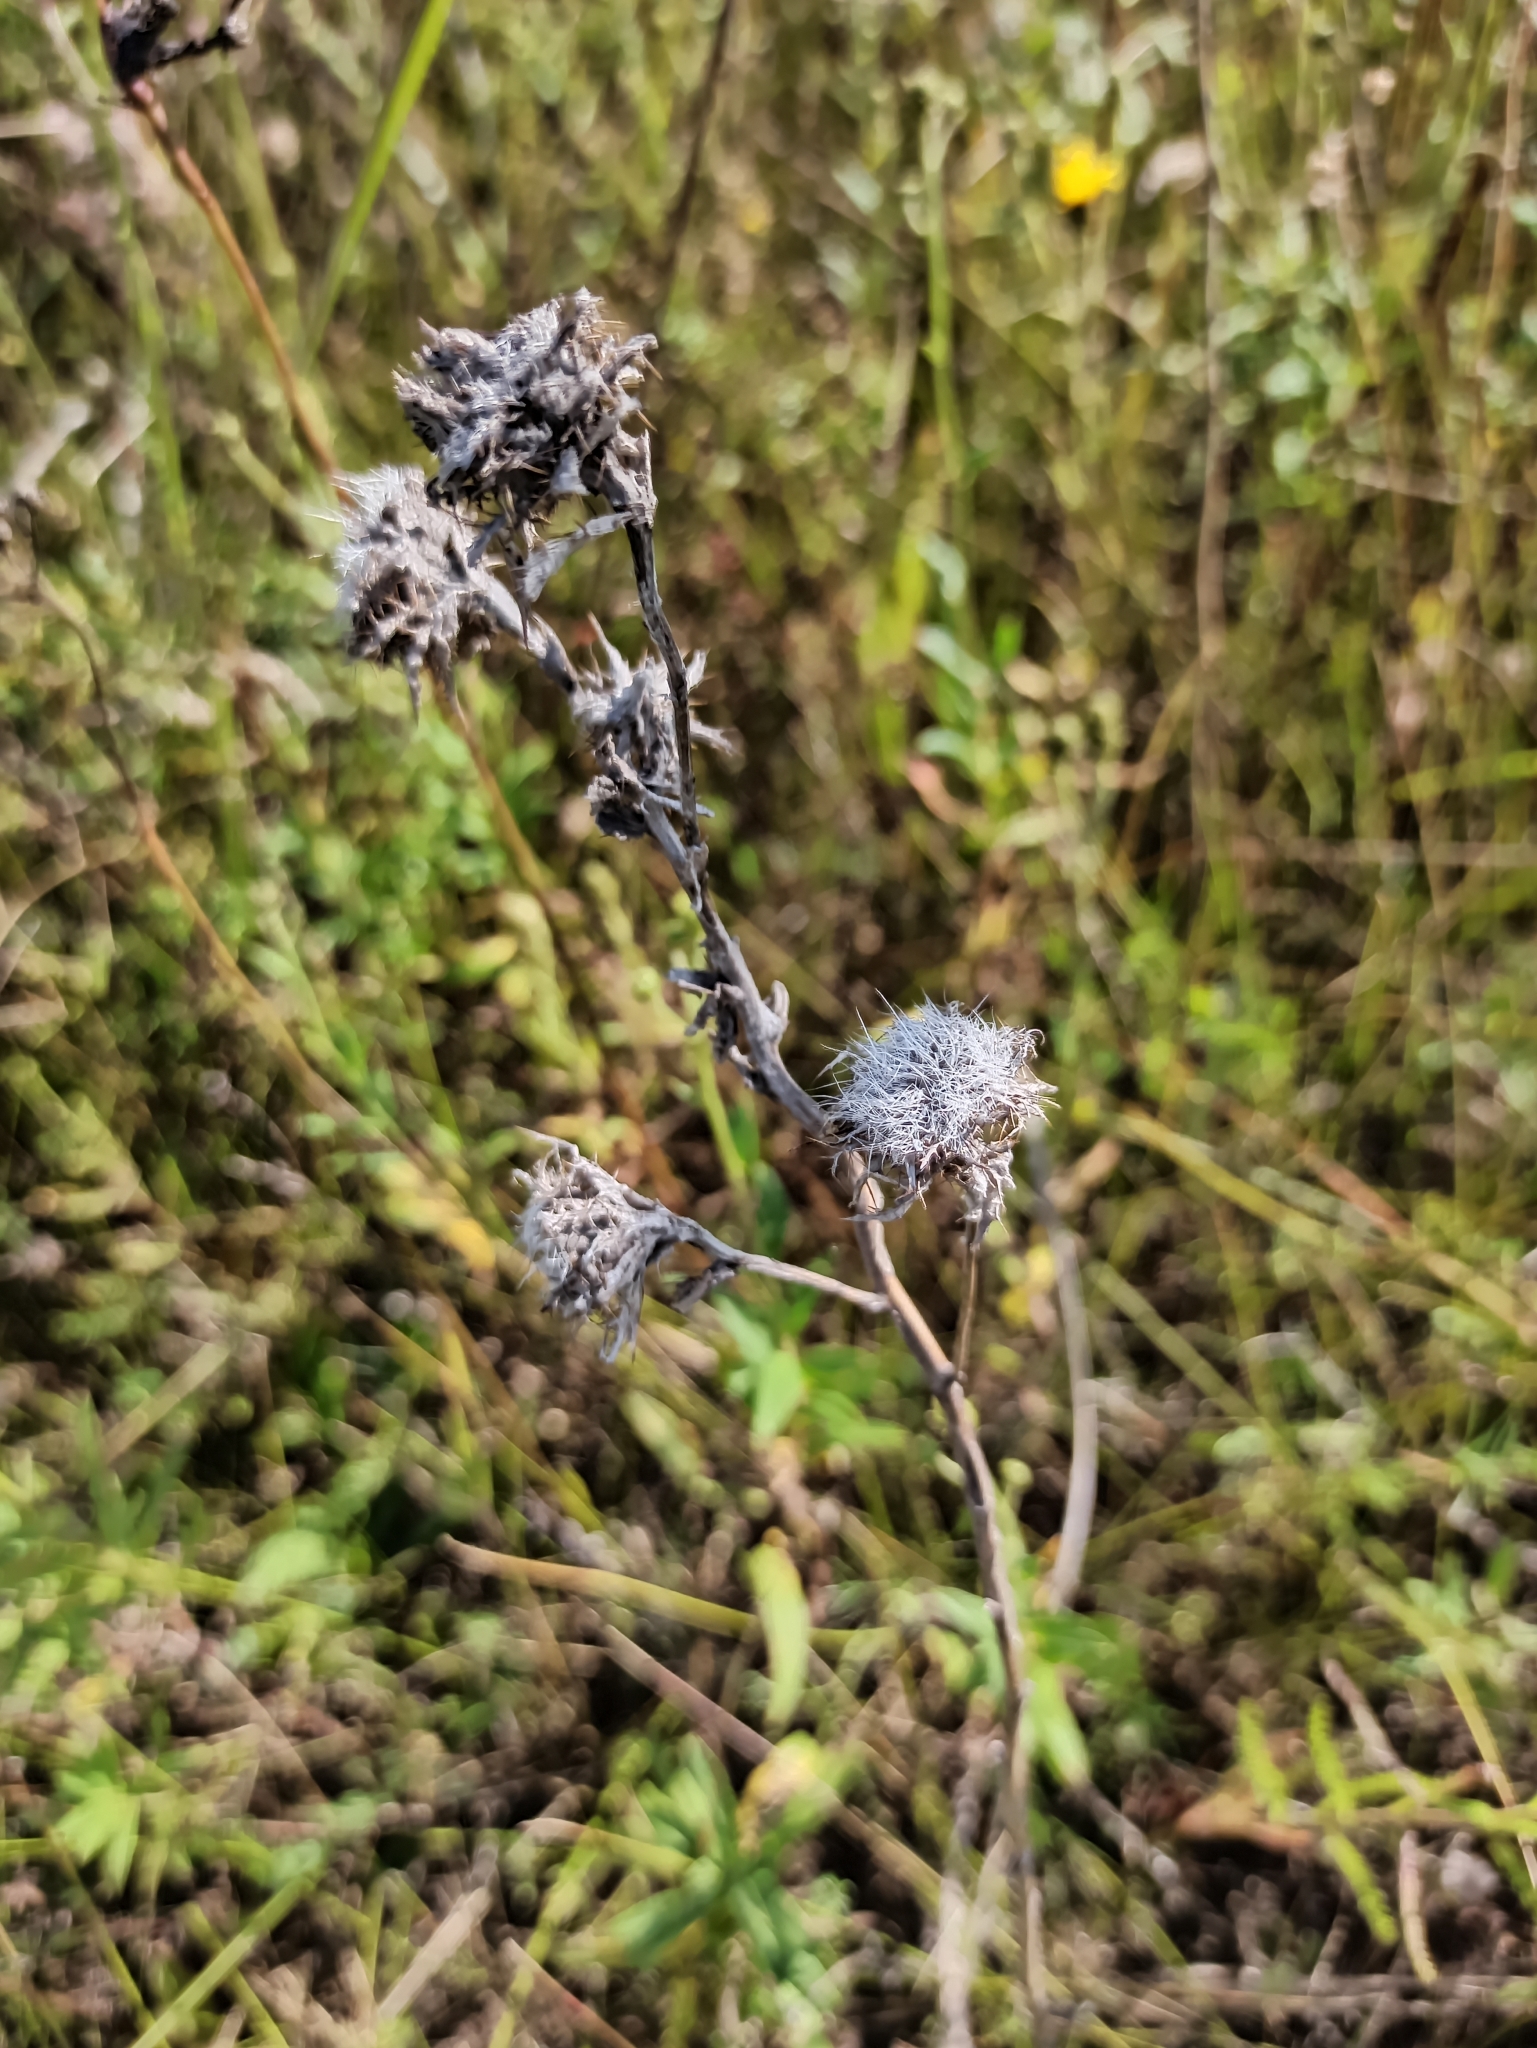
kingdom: Plantae
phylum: Tracheophyta
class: Magnoliopsida
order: Asterales
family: Asteraceae
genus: Carlina
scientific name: Carlina biebersteinii
